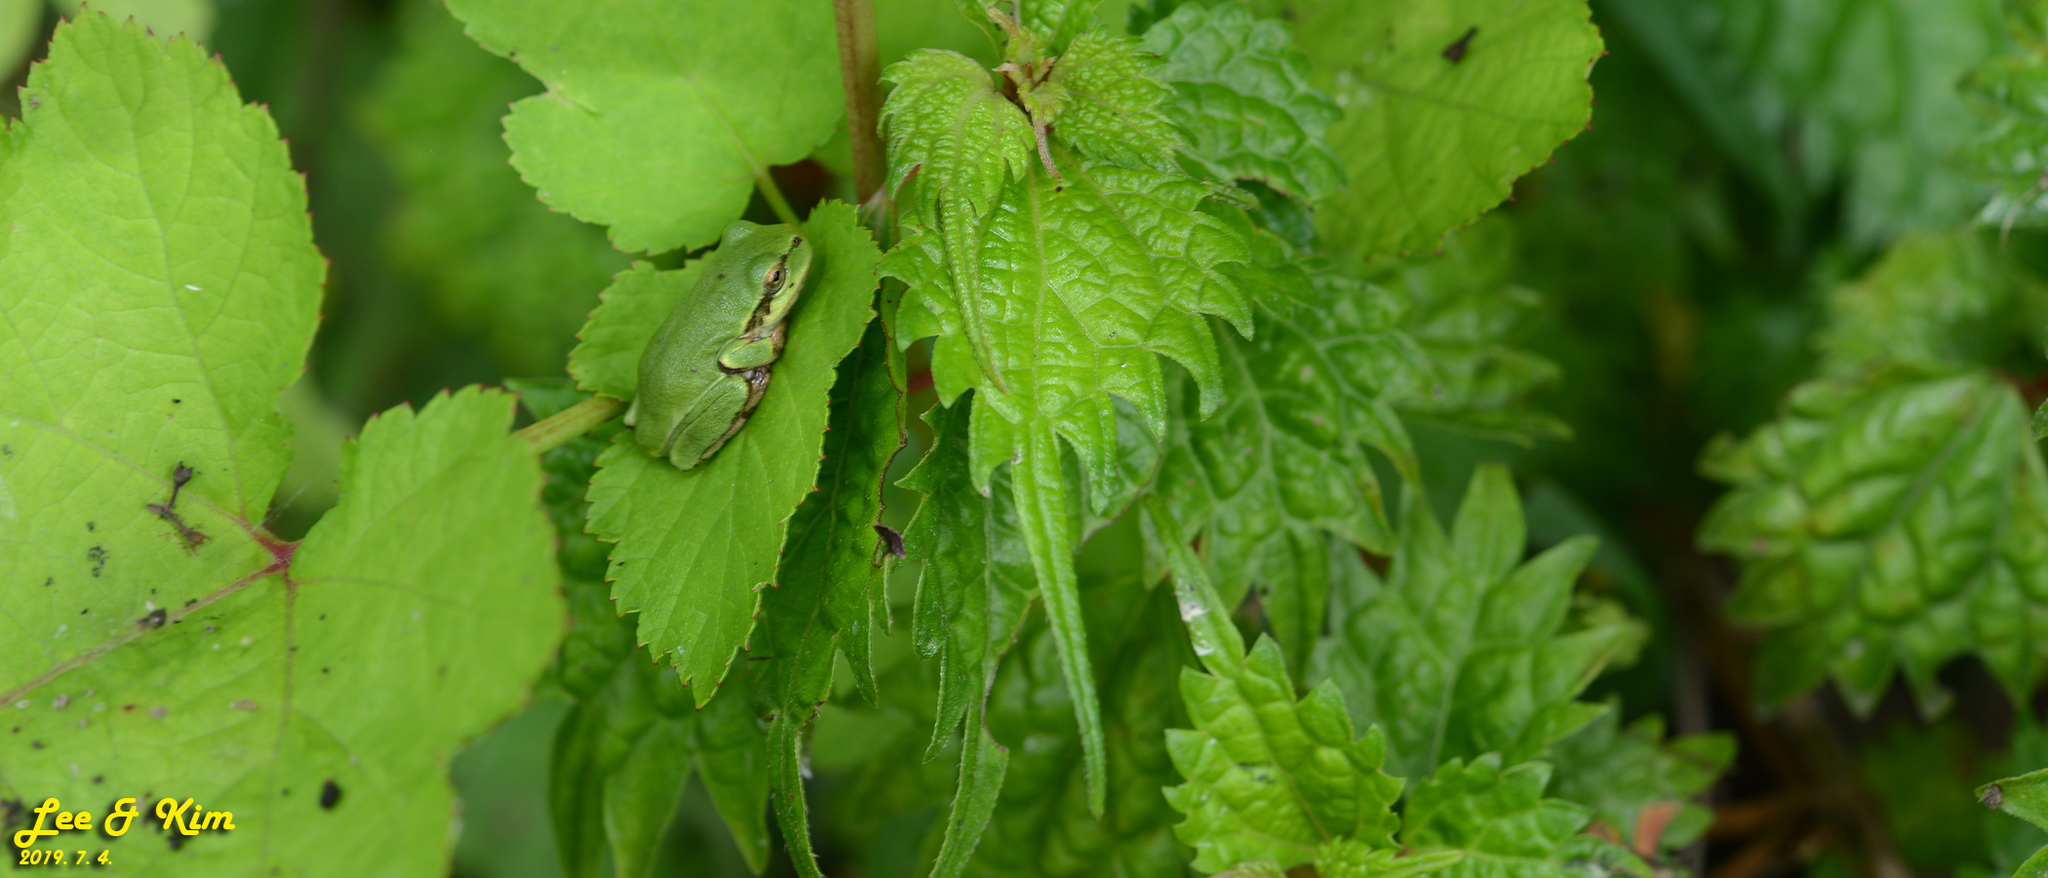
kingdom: Animalia
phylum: Chordata
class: Amphibia
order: Anura
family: Hylidae
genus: Dryophytes
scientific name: Dryophytes japonicus
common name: Japanese treefrog
